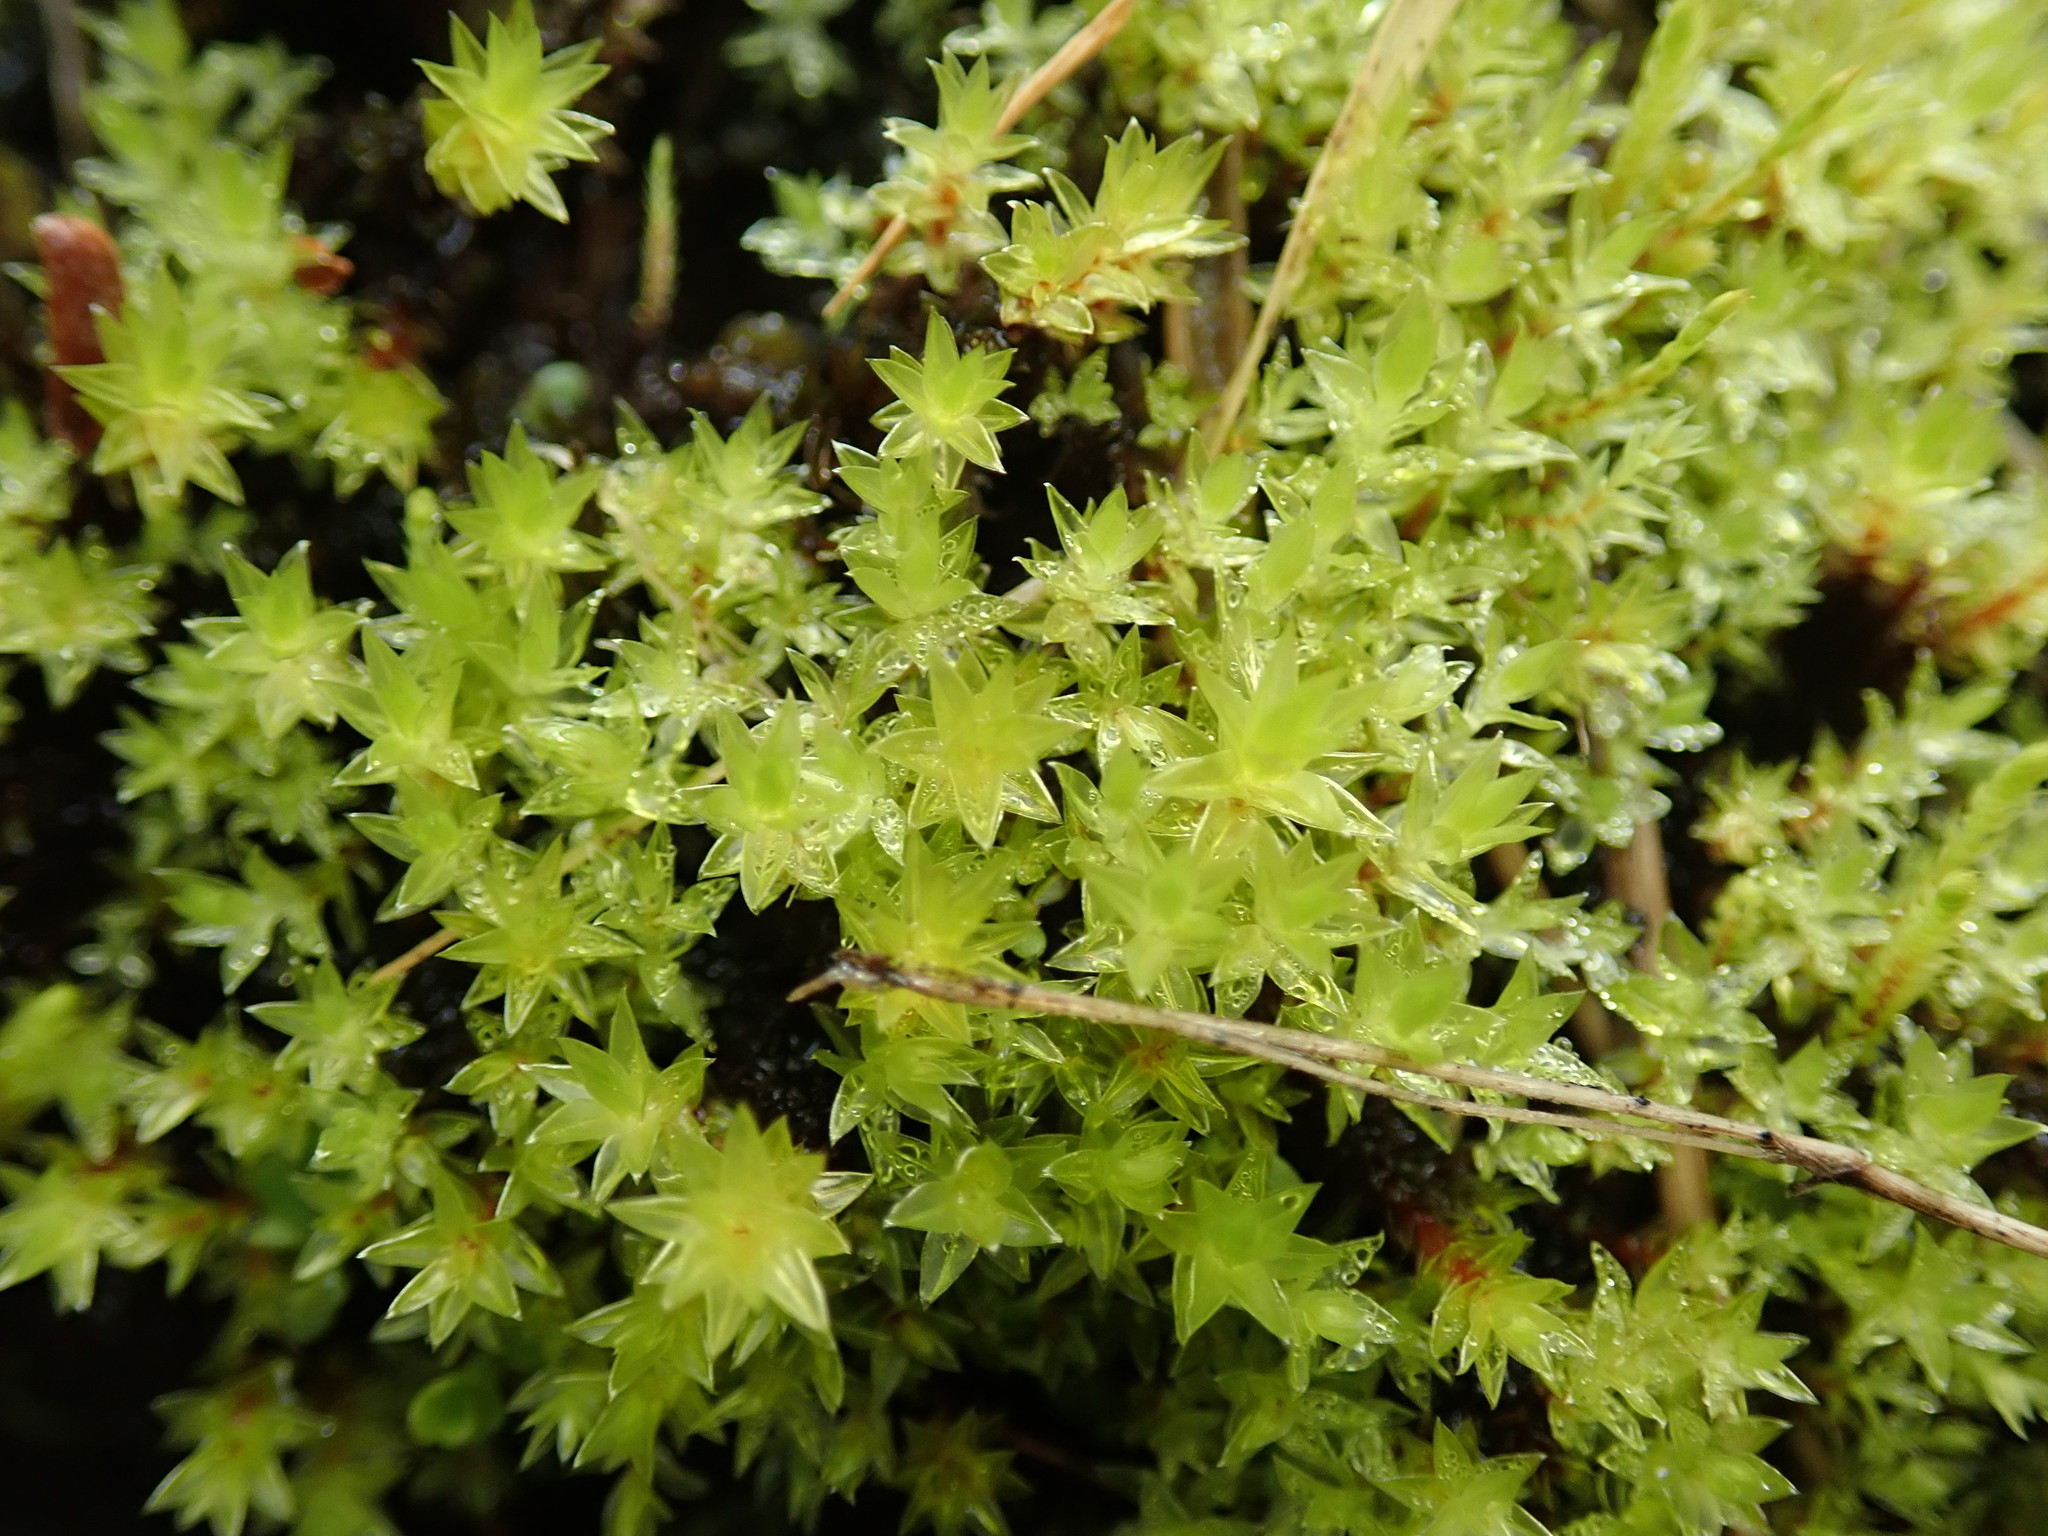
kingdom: Plantae
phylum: Bryophyta
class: Bryopsida
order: Bryales
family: Bryaceae
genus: Ptychostomum
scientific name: Ptychostomum pseudotriquetrum
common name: Long-leaved thread moss
